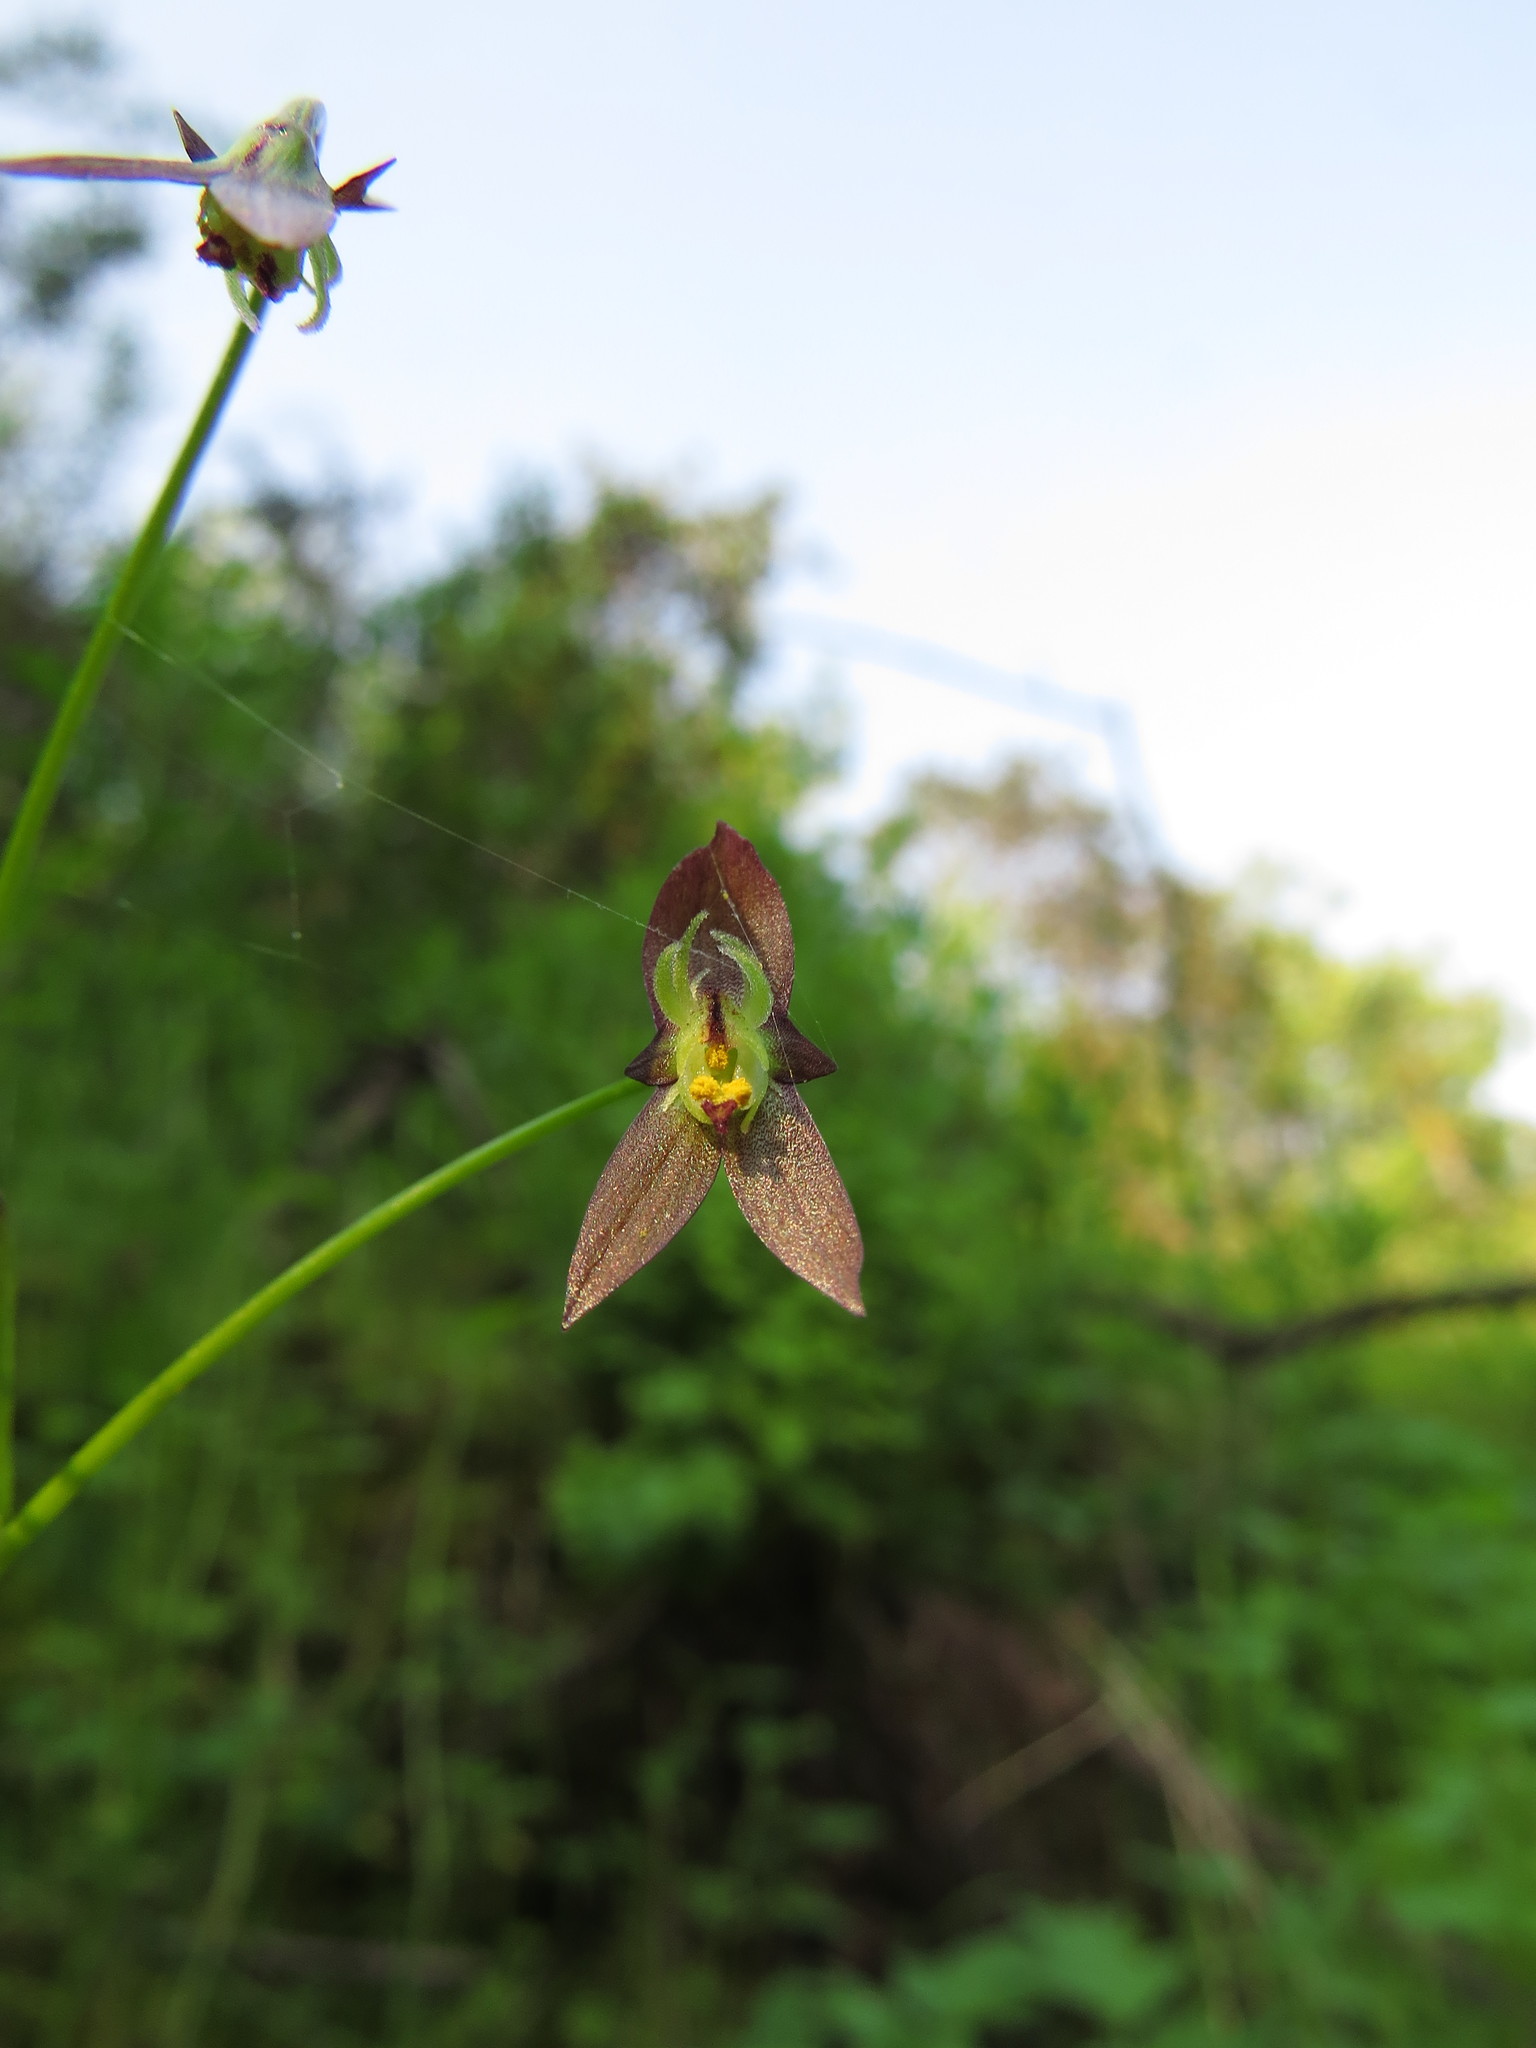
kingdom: Plantae
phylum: Tracheophyta
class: Liliopsida
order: Asparagales
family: Amaryllidaceae
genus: Gilliesia
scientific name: Gilliesia graminea
